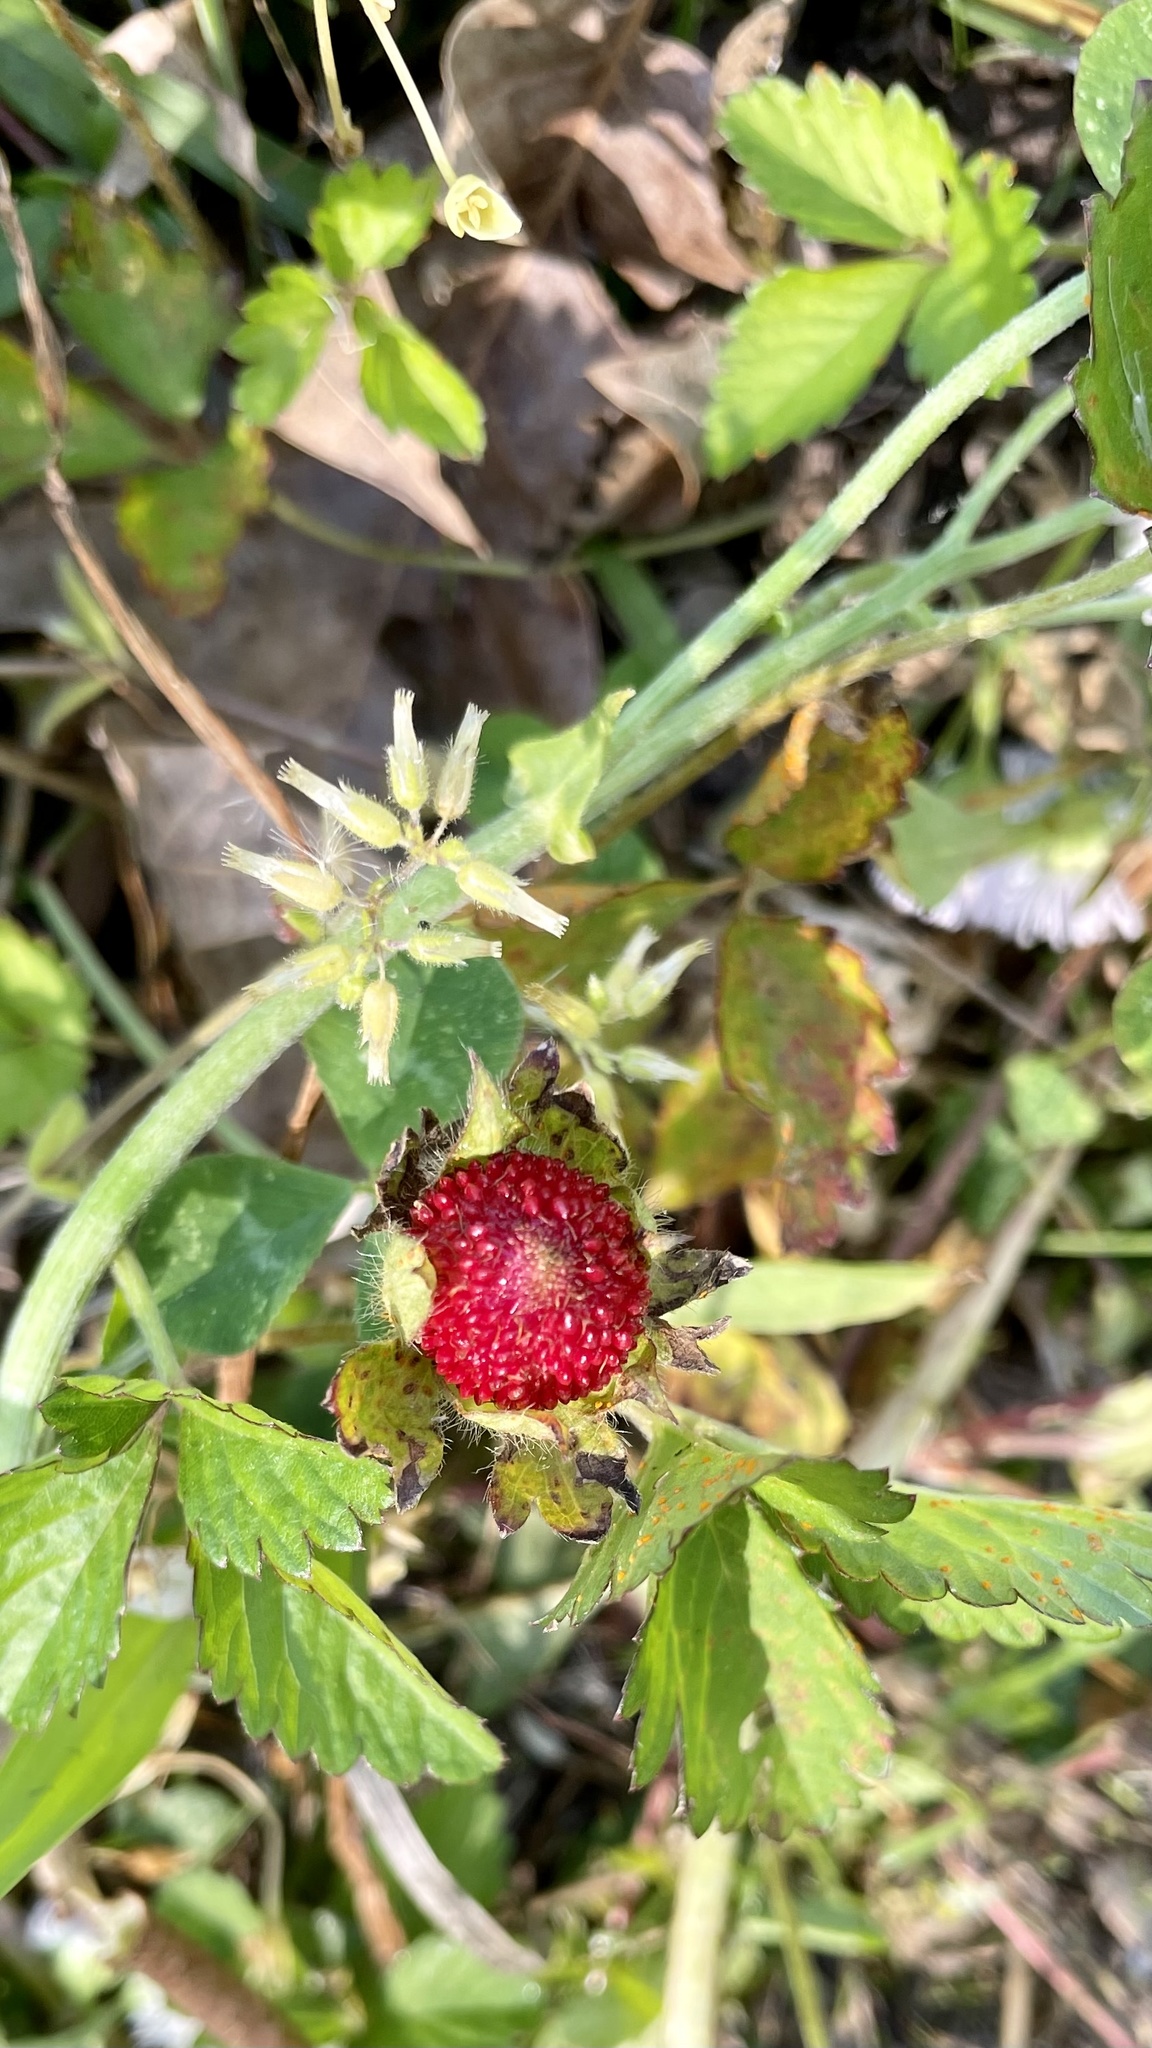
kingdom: Plantae
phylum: Tracheophyta
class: Magnoliopsida
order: Rosales
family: Rosaceae
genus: Potentilla
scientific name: Potentilla indica
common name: Yellow-flowered strawberry
